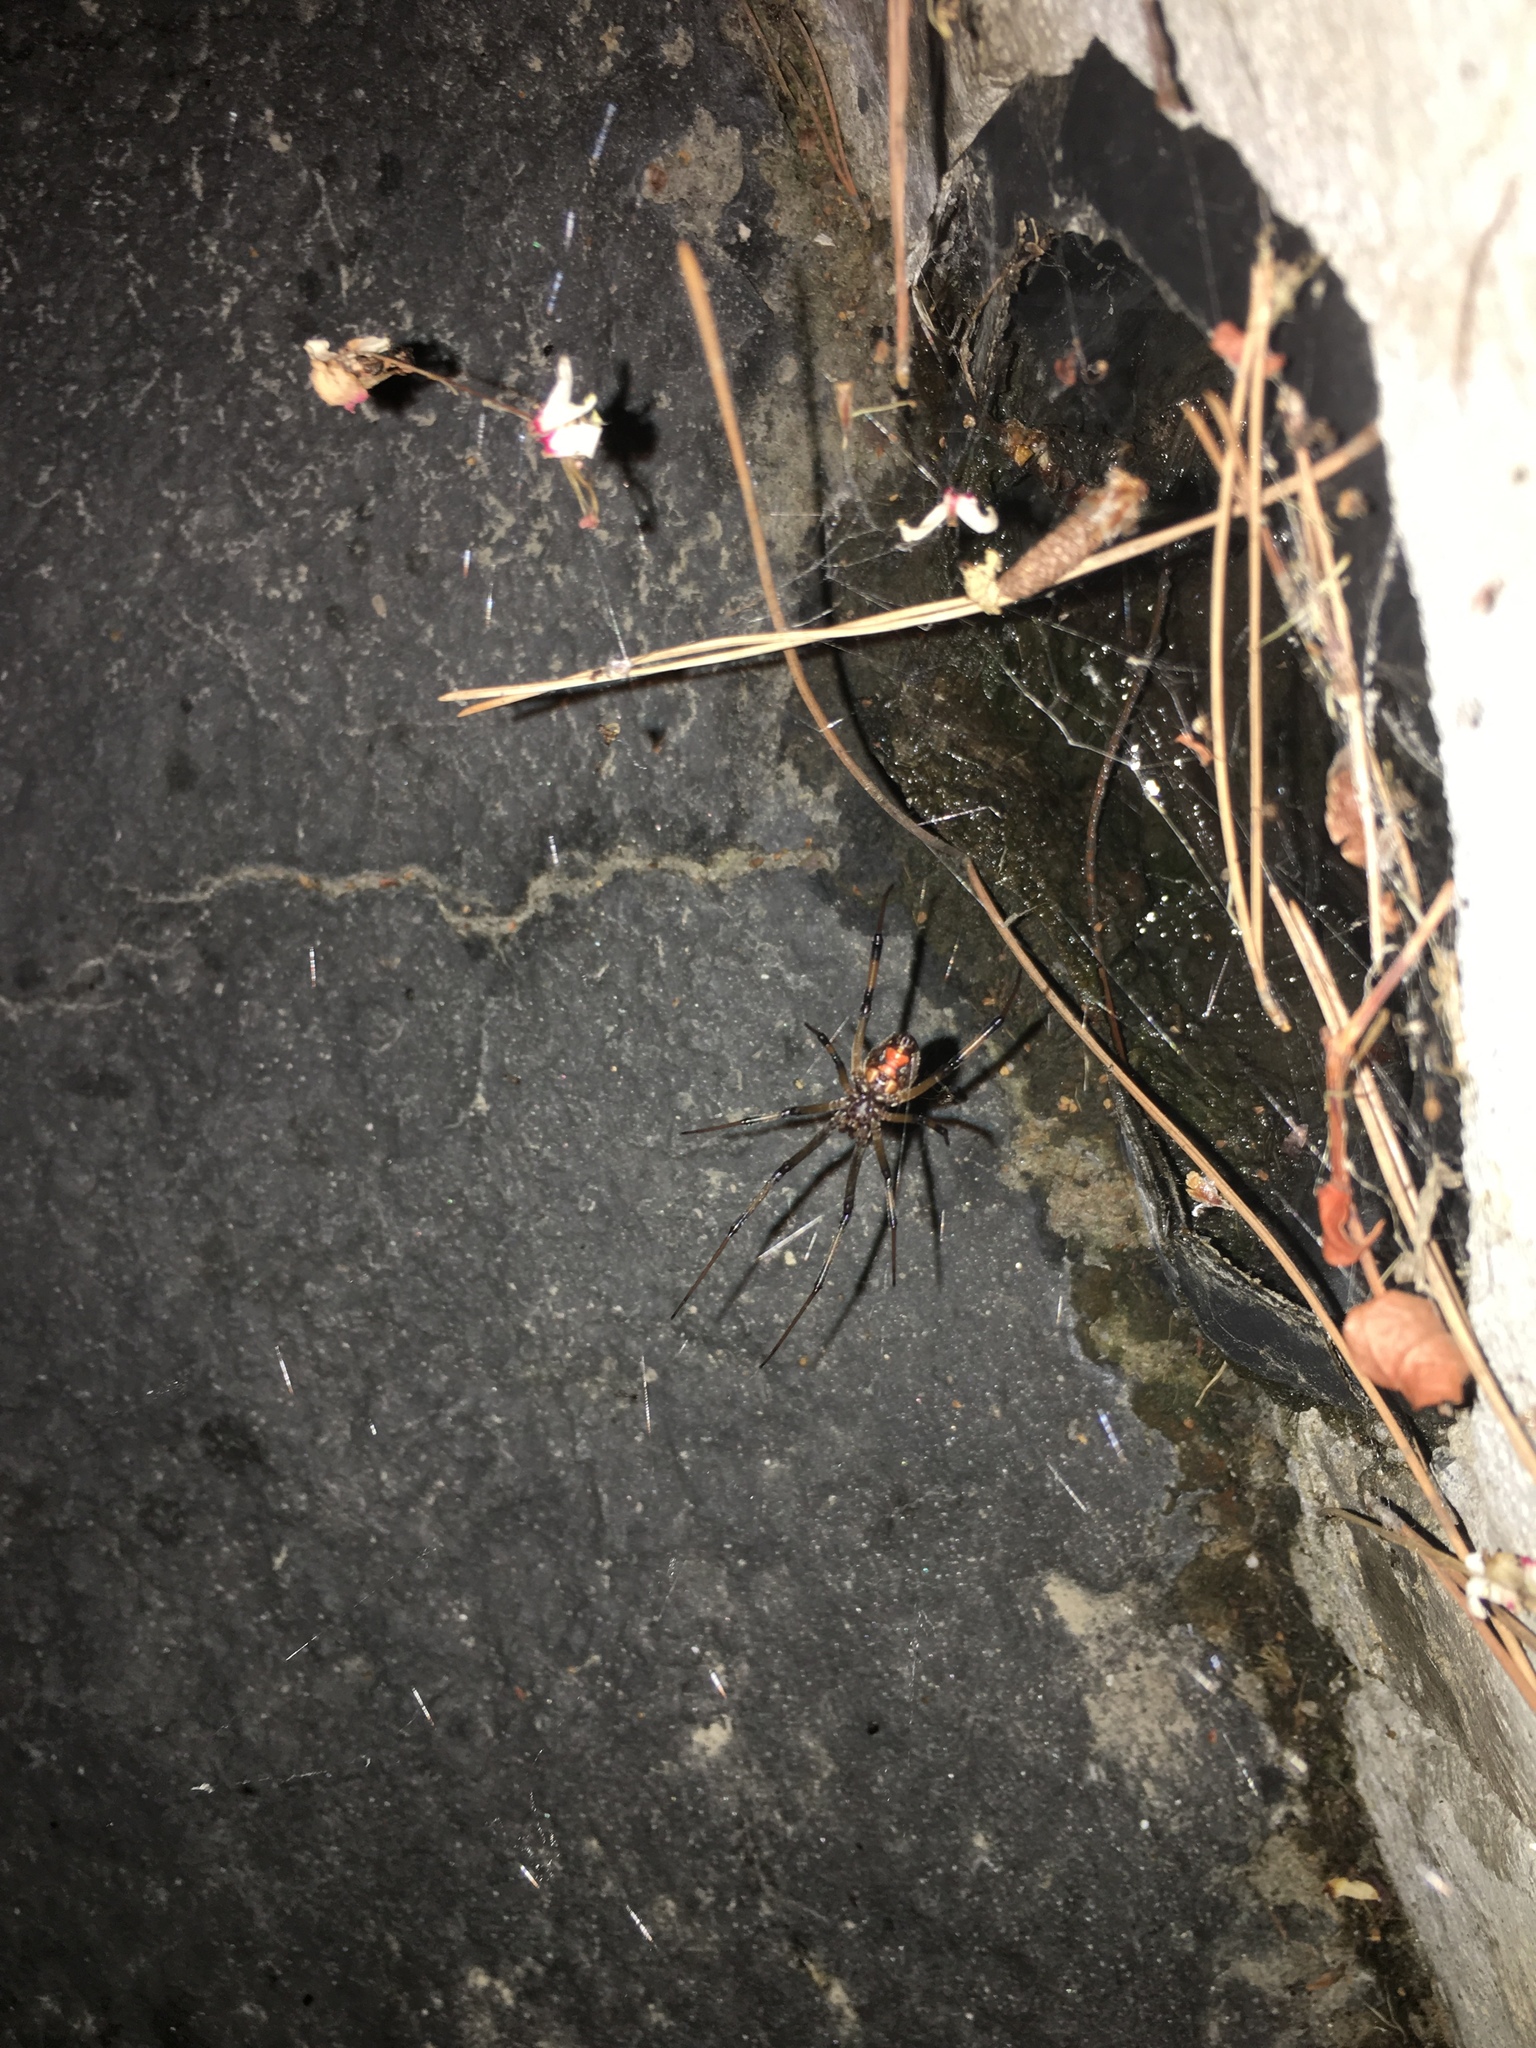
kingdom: Animalia
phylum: Arthropoda
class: Arachnida
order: Araneae
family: Theridiidae
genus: Latrodectus
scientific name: Latrodectus geometricus
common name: Brown widow spider
